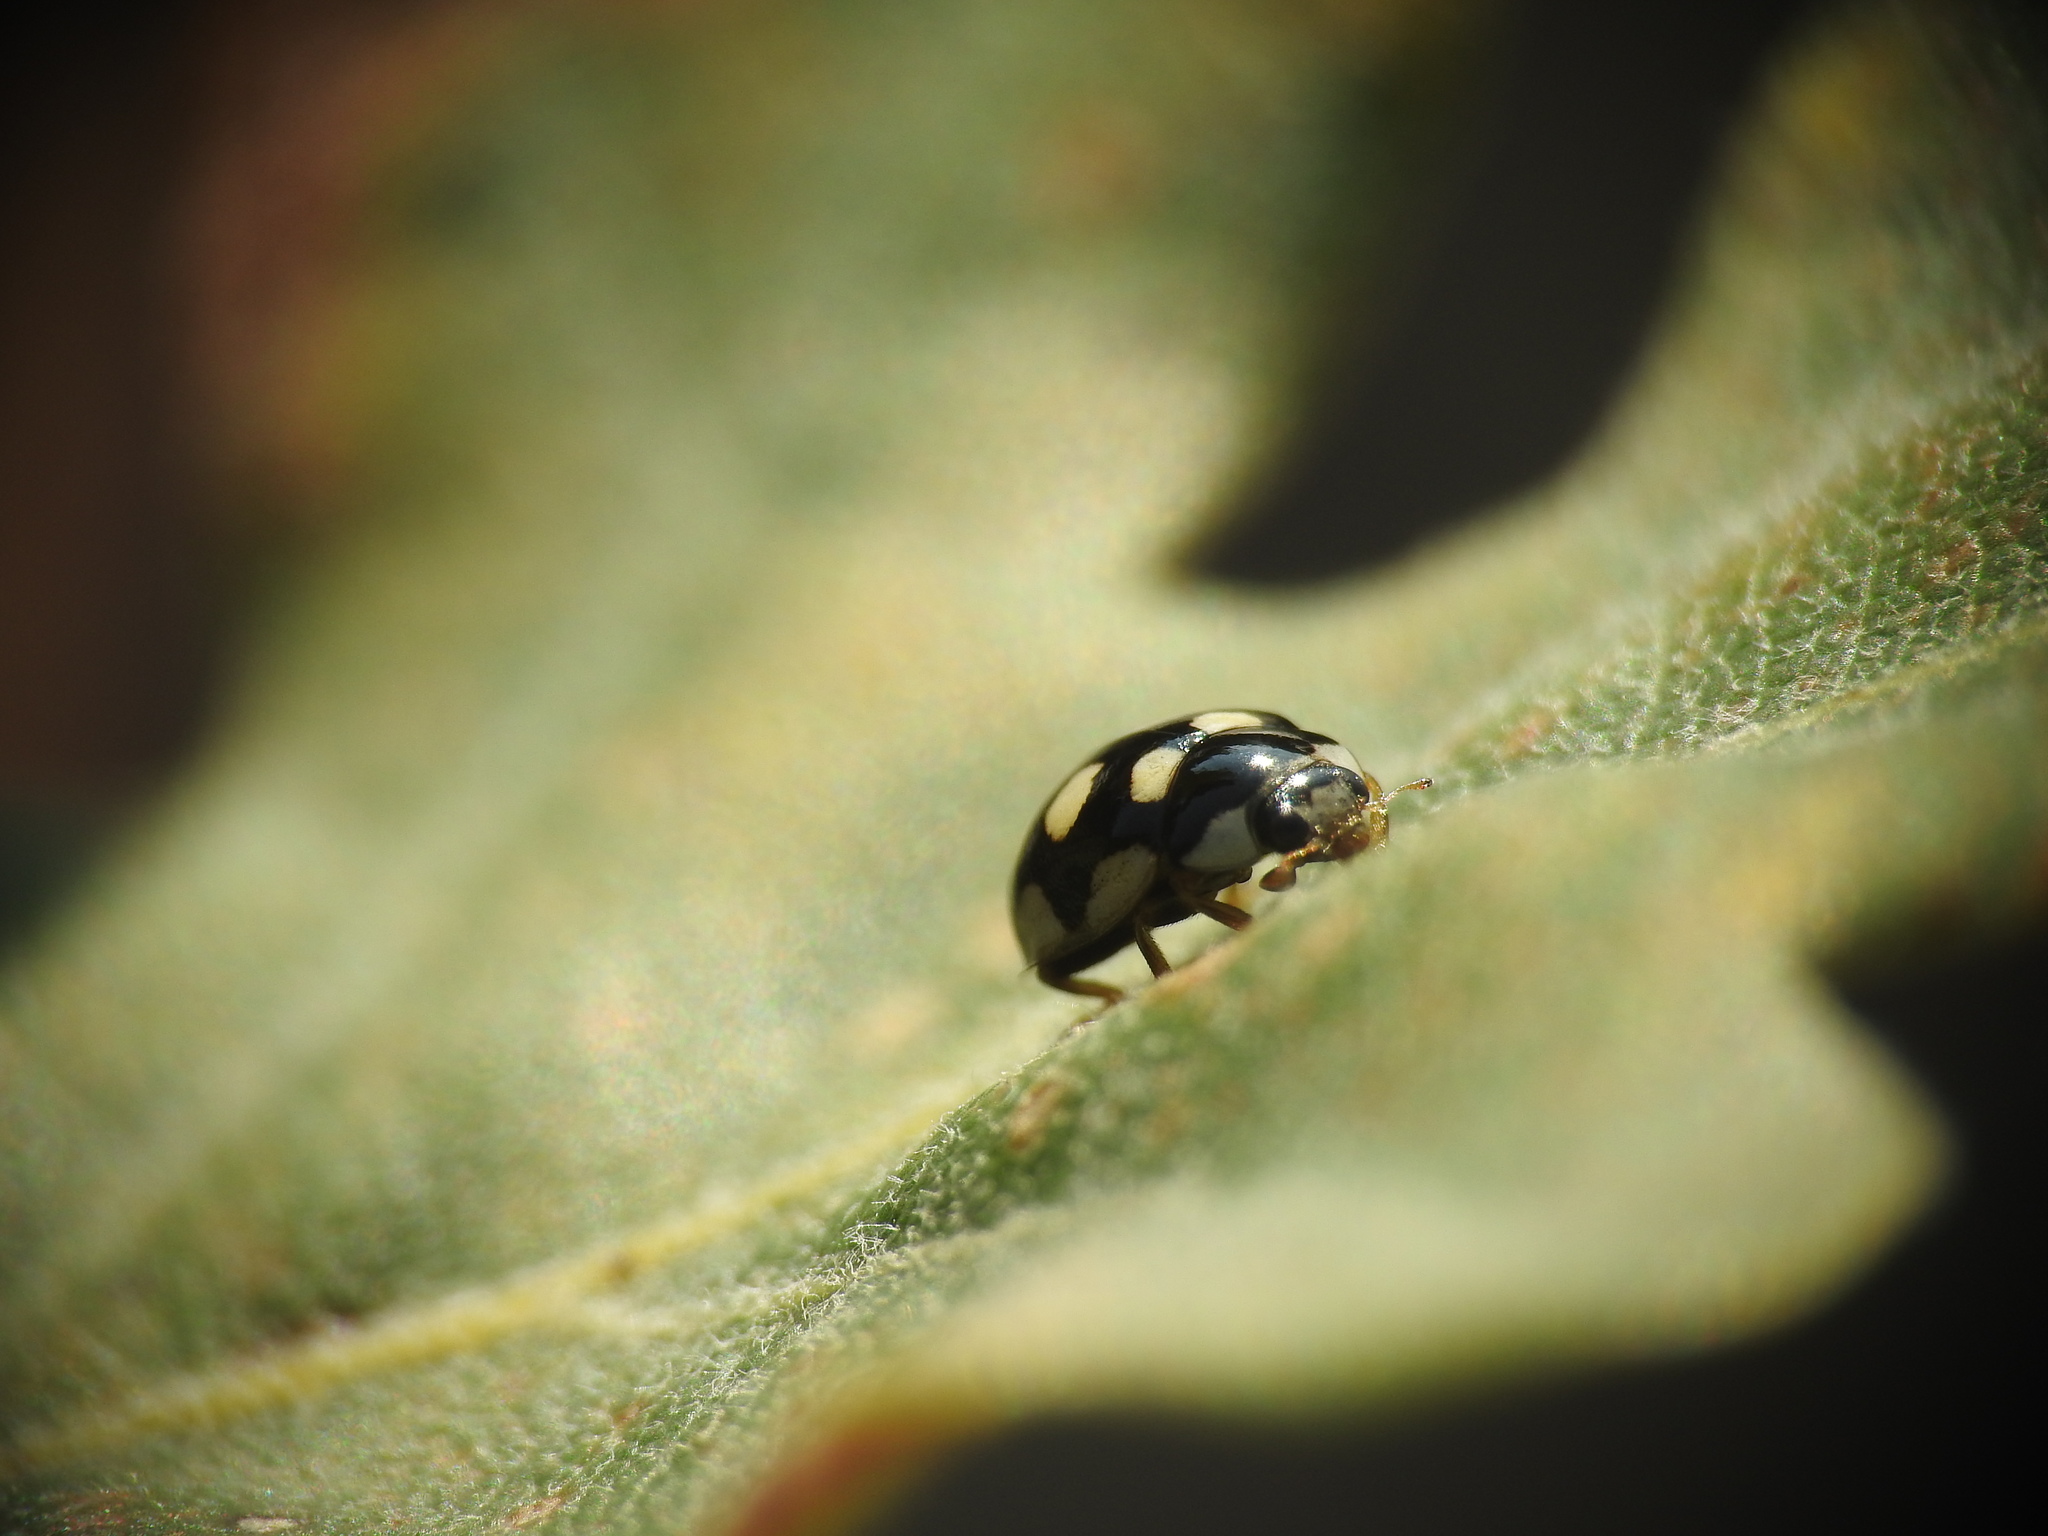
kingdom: Animalia
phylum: Arthropoda
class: Insecta
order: Coleoptera
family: Coccinellidae
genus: Coccinula
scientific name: Coccinula quatuordecimpustulata
